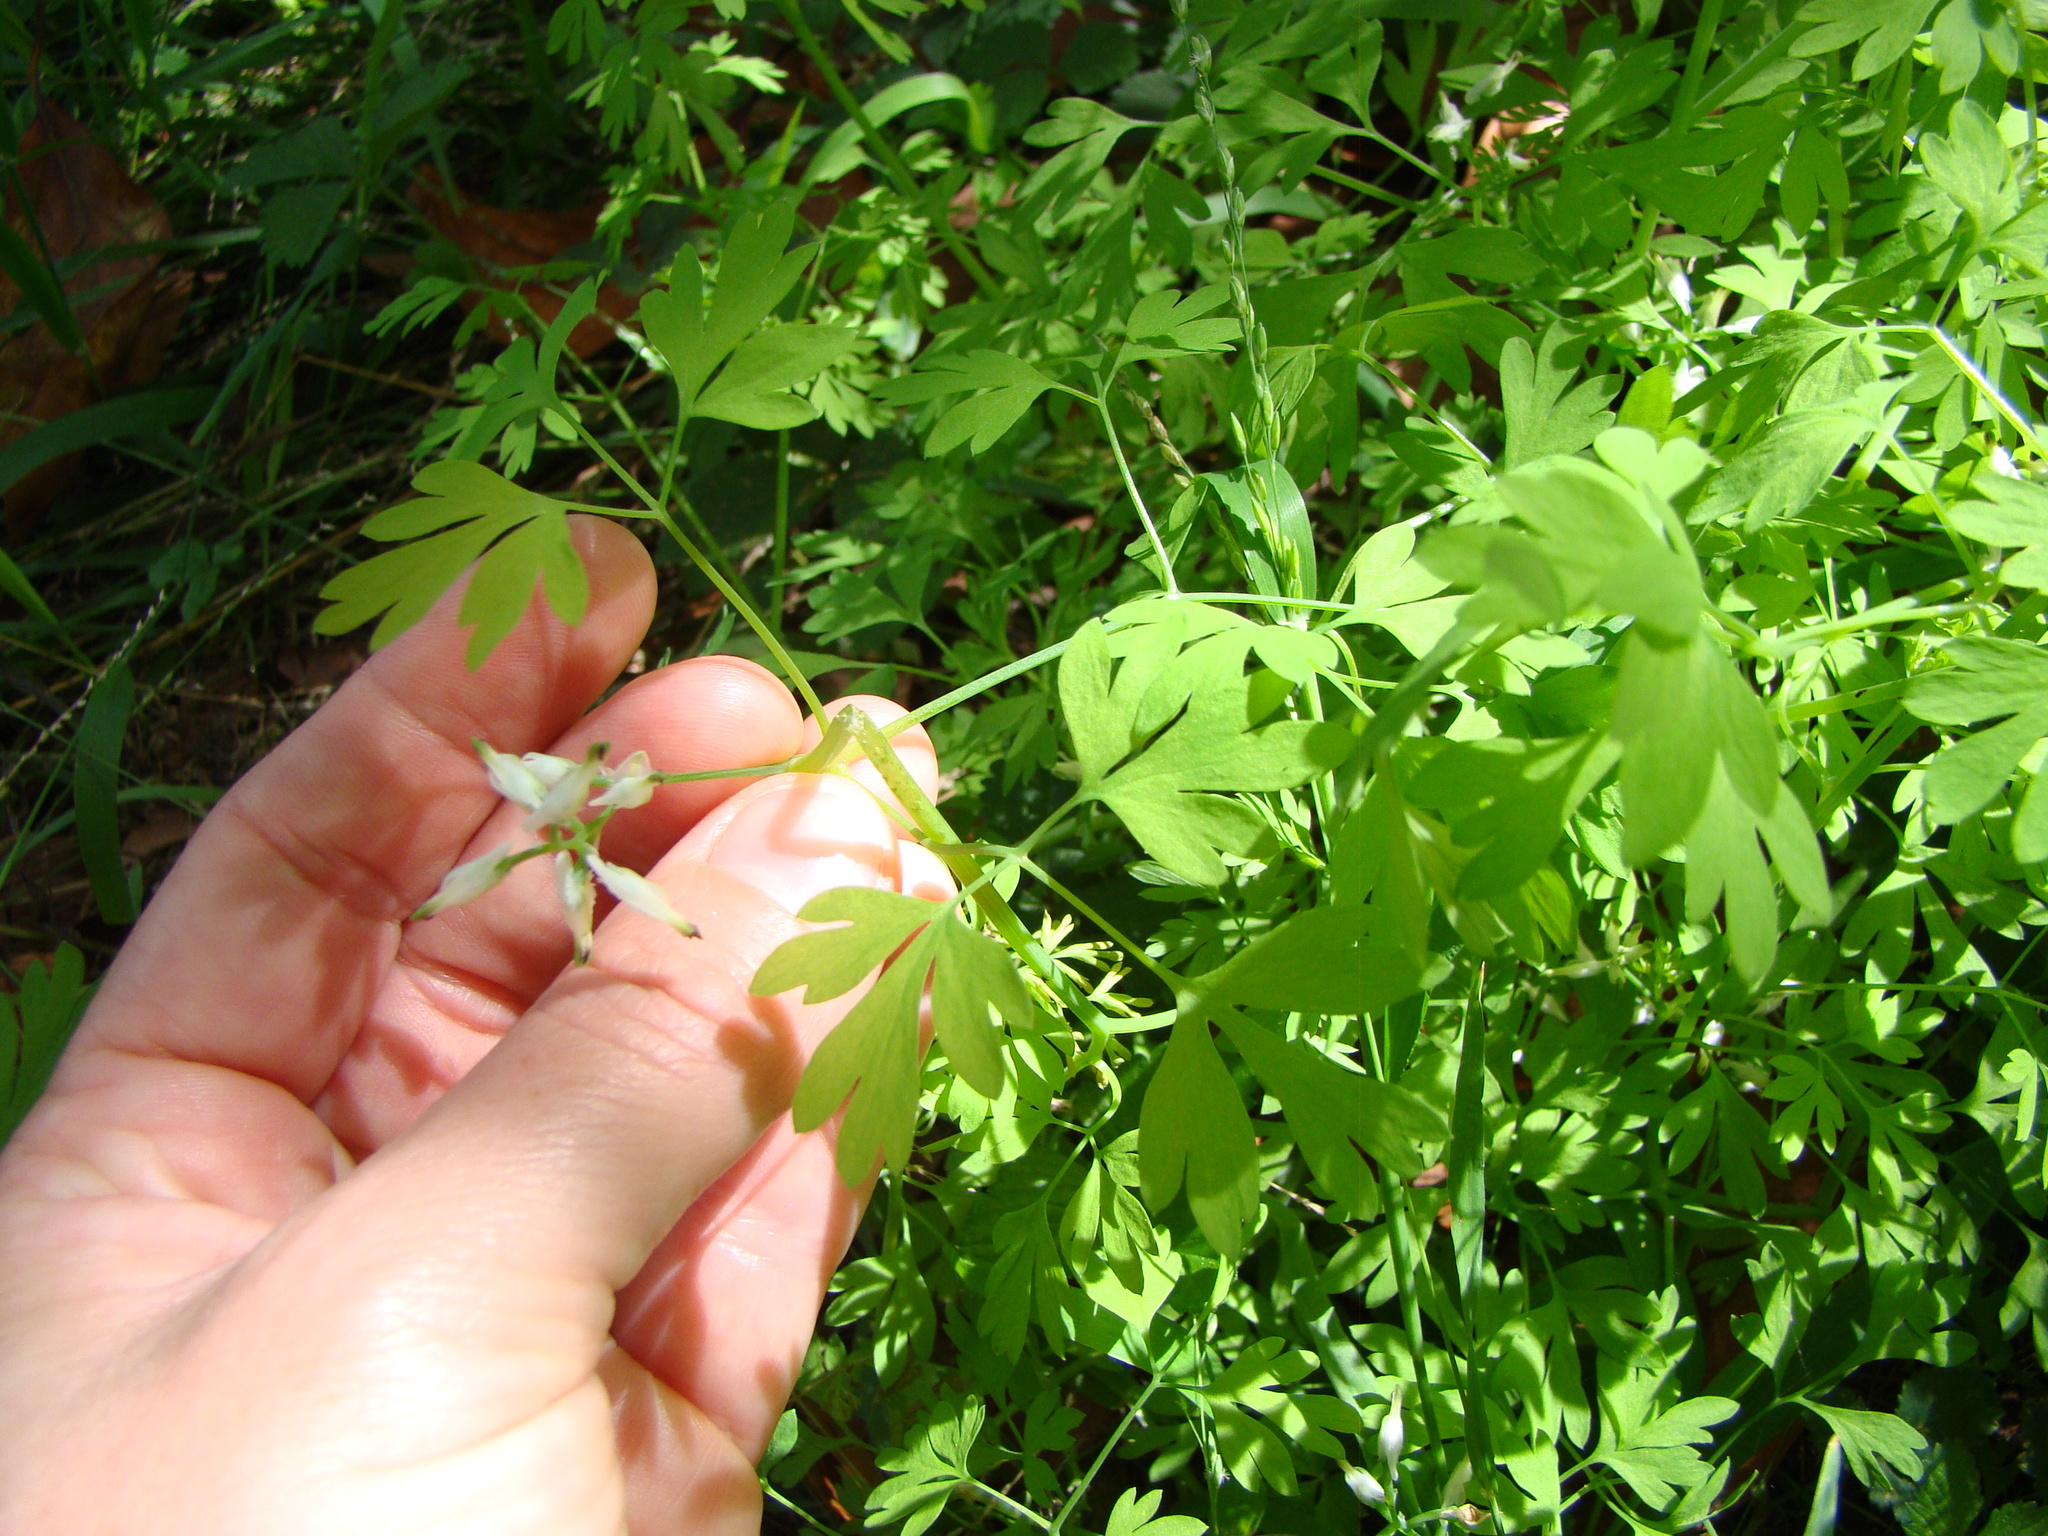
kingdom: Plantae
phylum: Tracheophyta
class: Magnoliopsida
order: Ranunculales
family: Papaveraceae
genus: Fumaria
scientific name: Fumaria capreolata
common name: White ramping-fumitory
